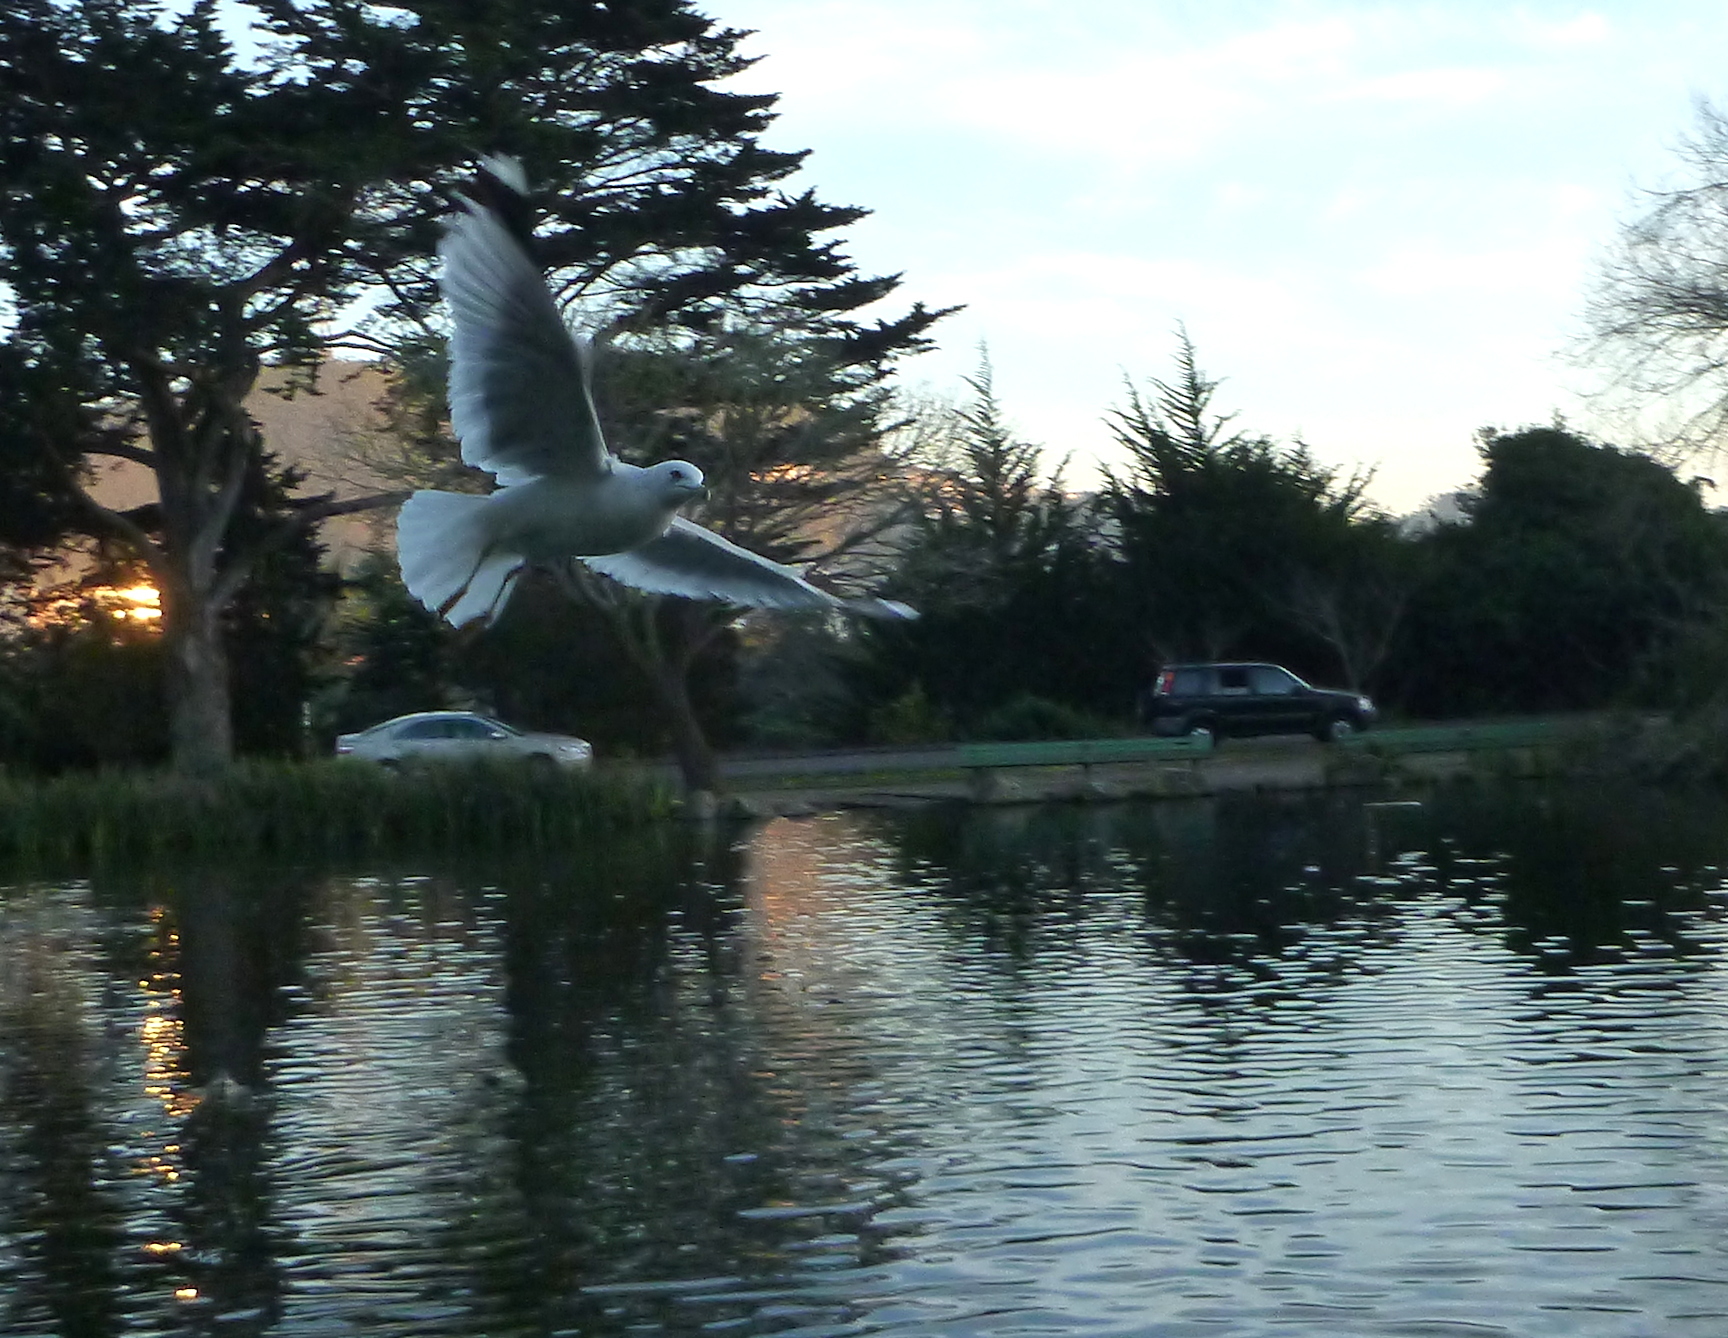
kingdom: Animalia
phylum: Chordata
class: Aves
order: Charadriiformes
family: Laridae
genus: Larus
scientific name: Larus delawarensis
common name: Ring-billed gull
